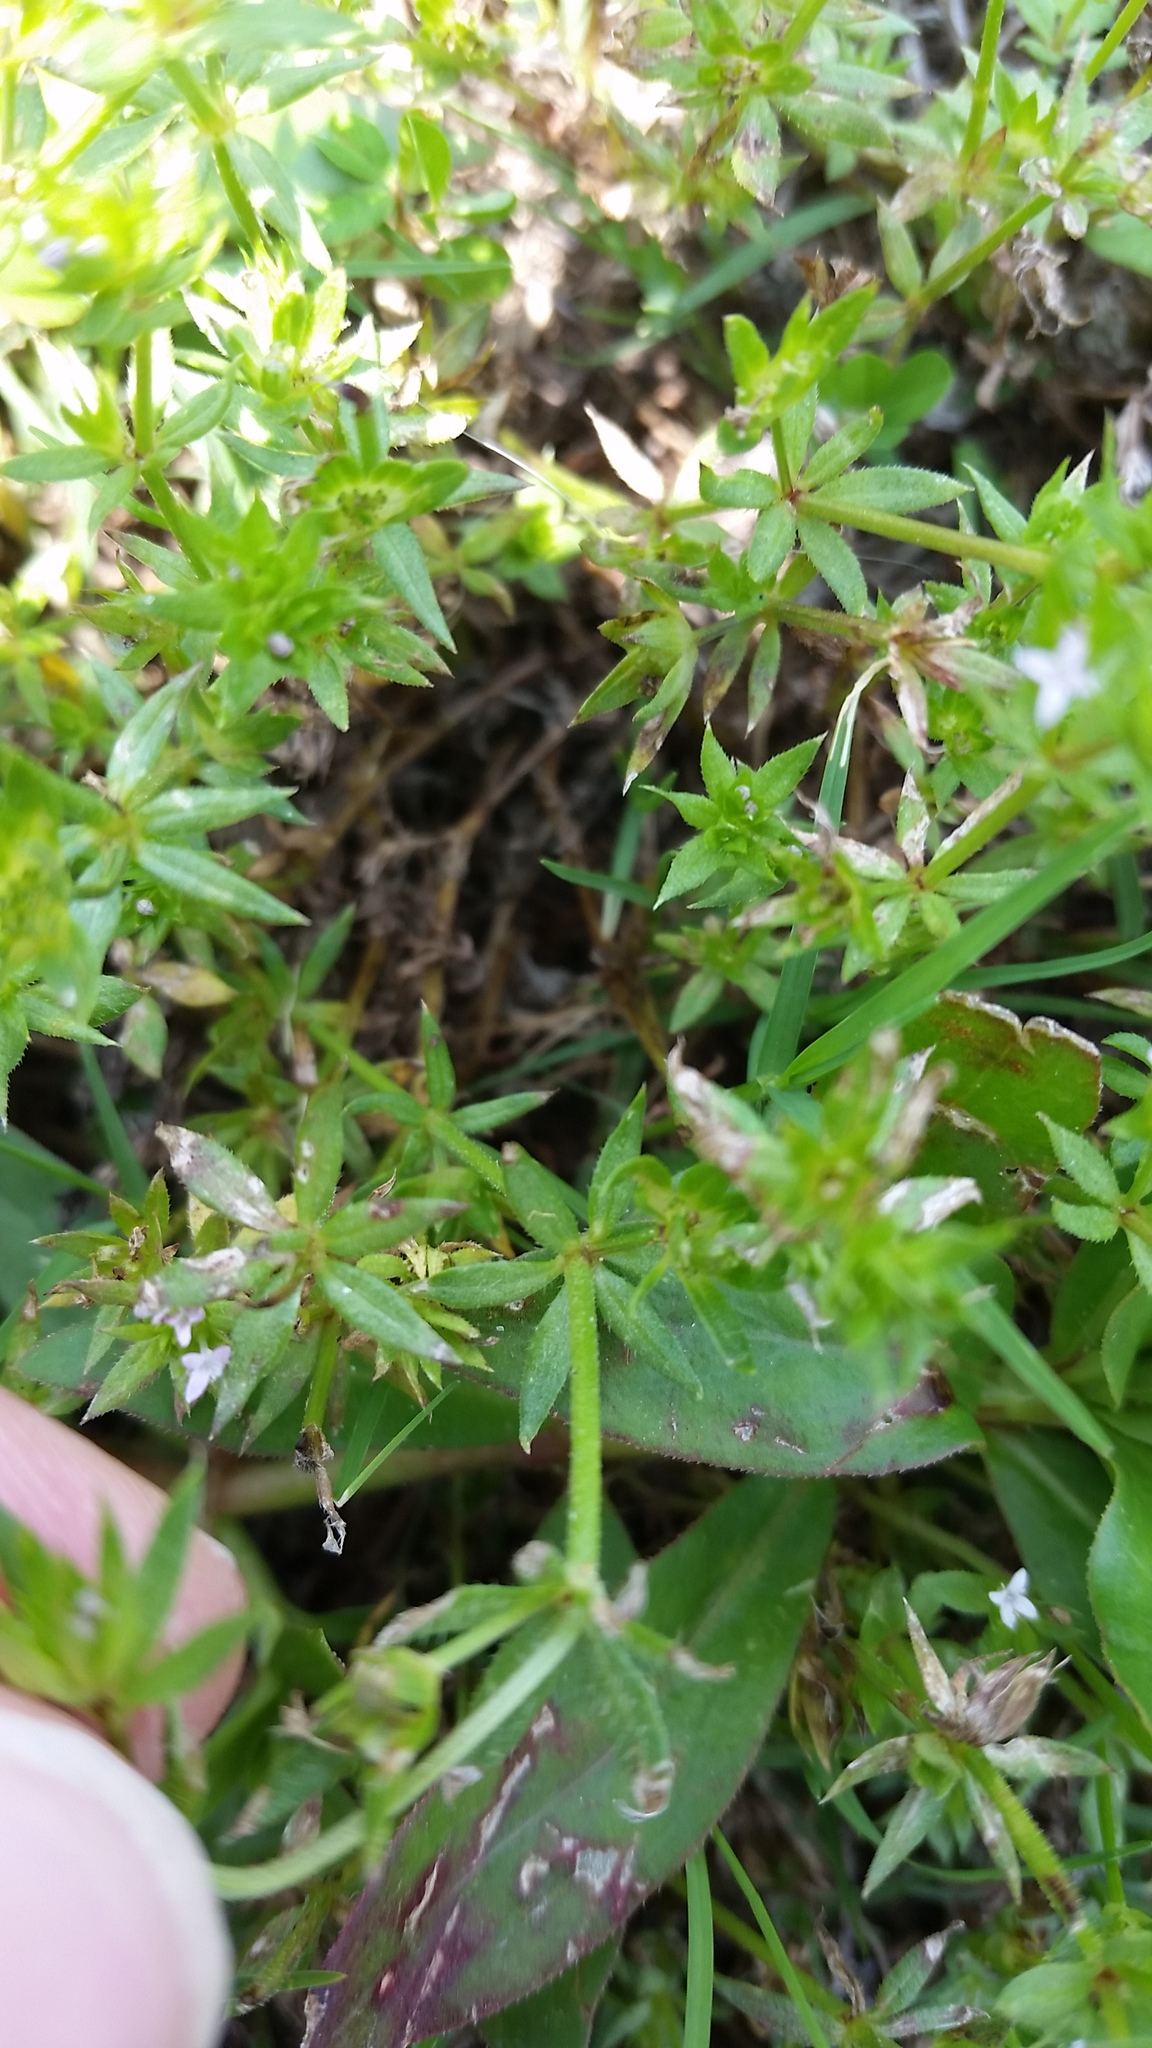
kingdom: Plantae
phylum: Tracheophyta
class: Magnoliopsida
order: Gentianales
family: Rubiaceae
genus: Sherardia
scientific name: Sherardia arvensis
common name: Field madder
